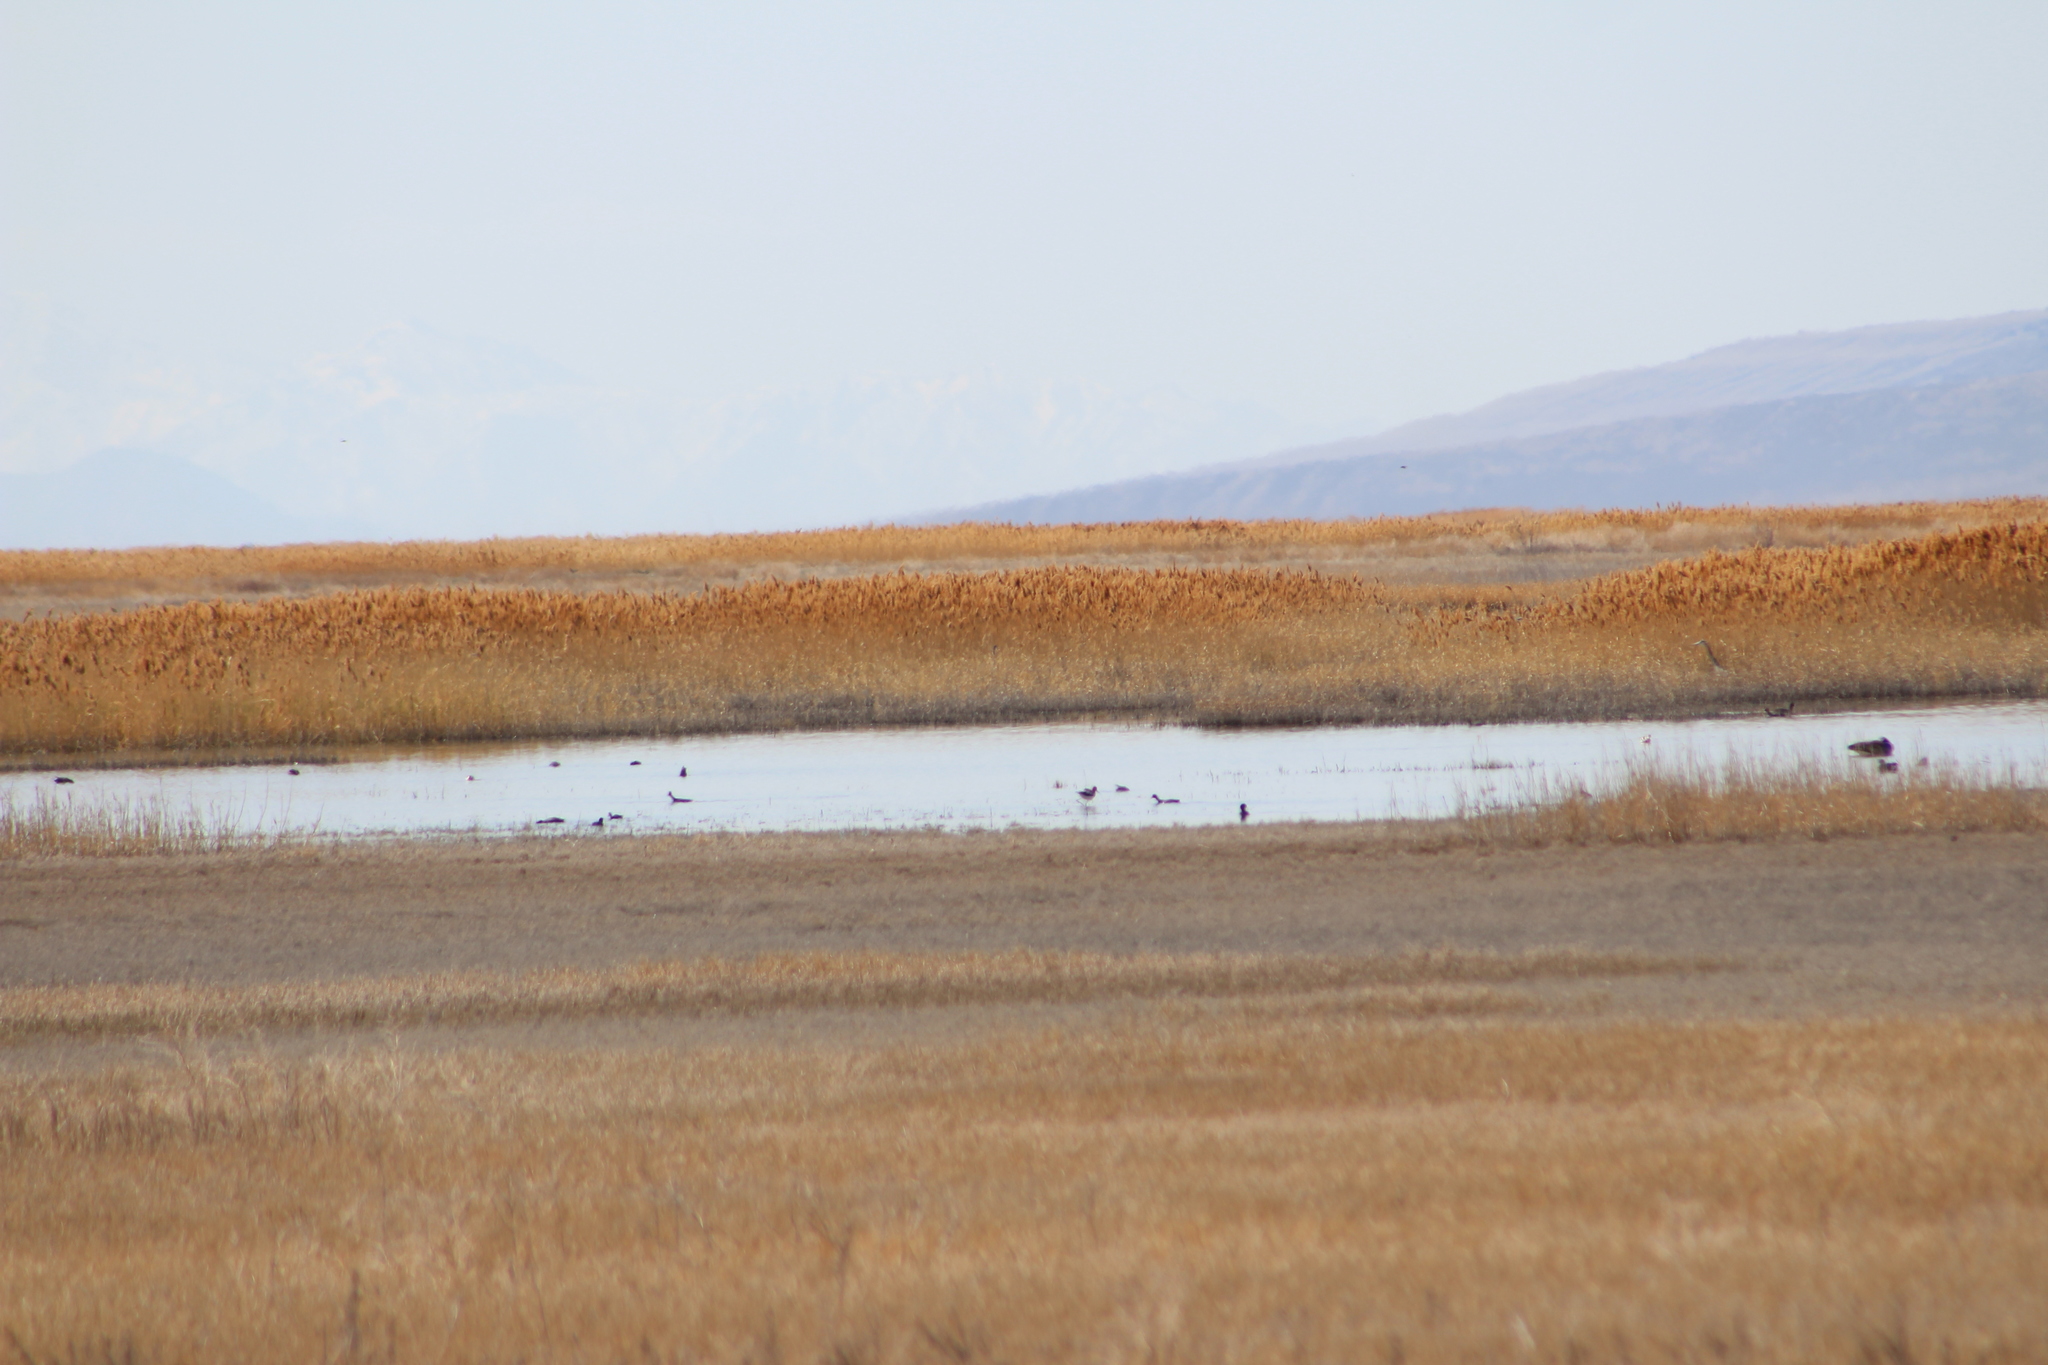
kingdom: Animalia
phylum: Chordata
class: Aves
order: Charadriiformes
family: Recurvirostridae
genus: Recurvirostra
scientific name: Recurvirostra americana
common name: American avocet
